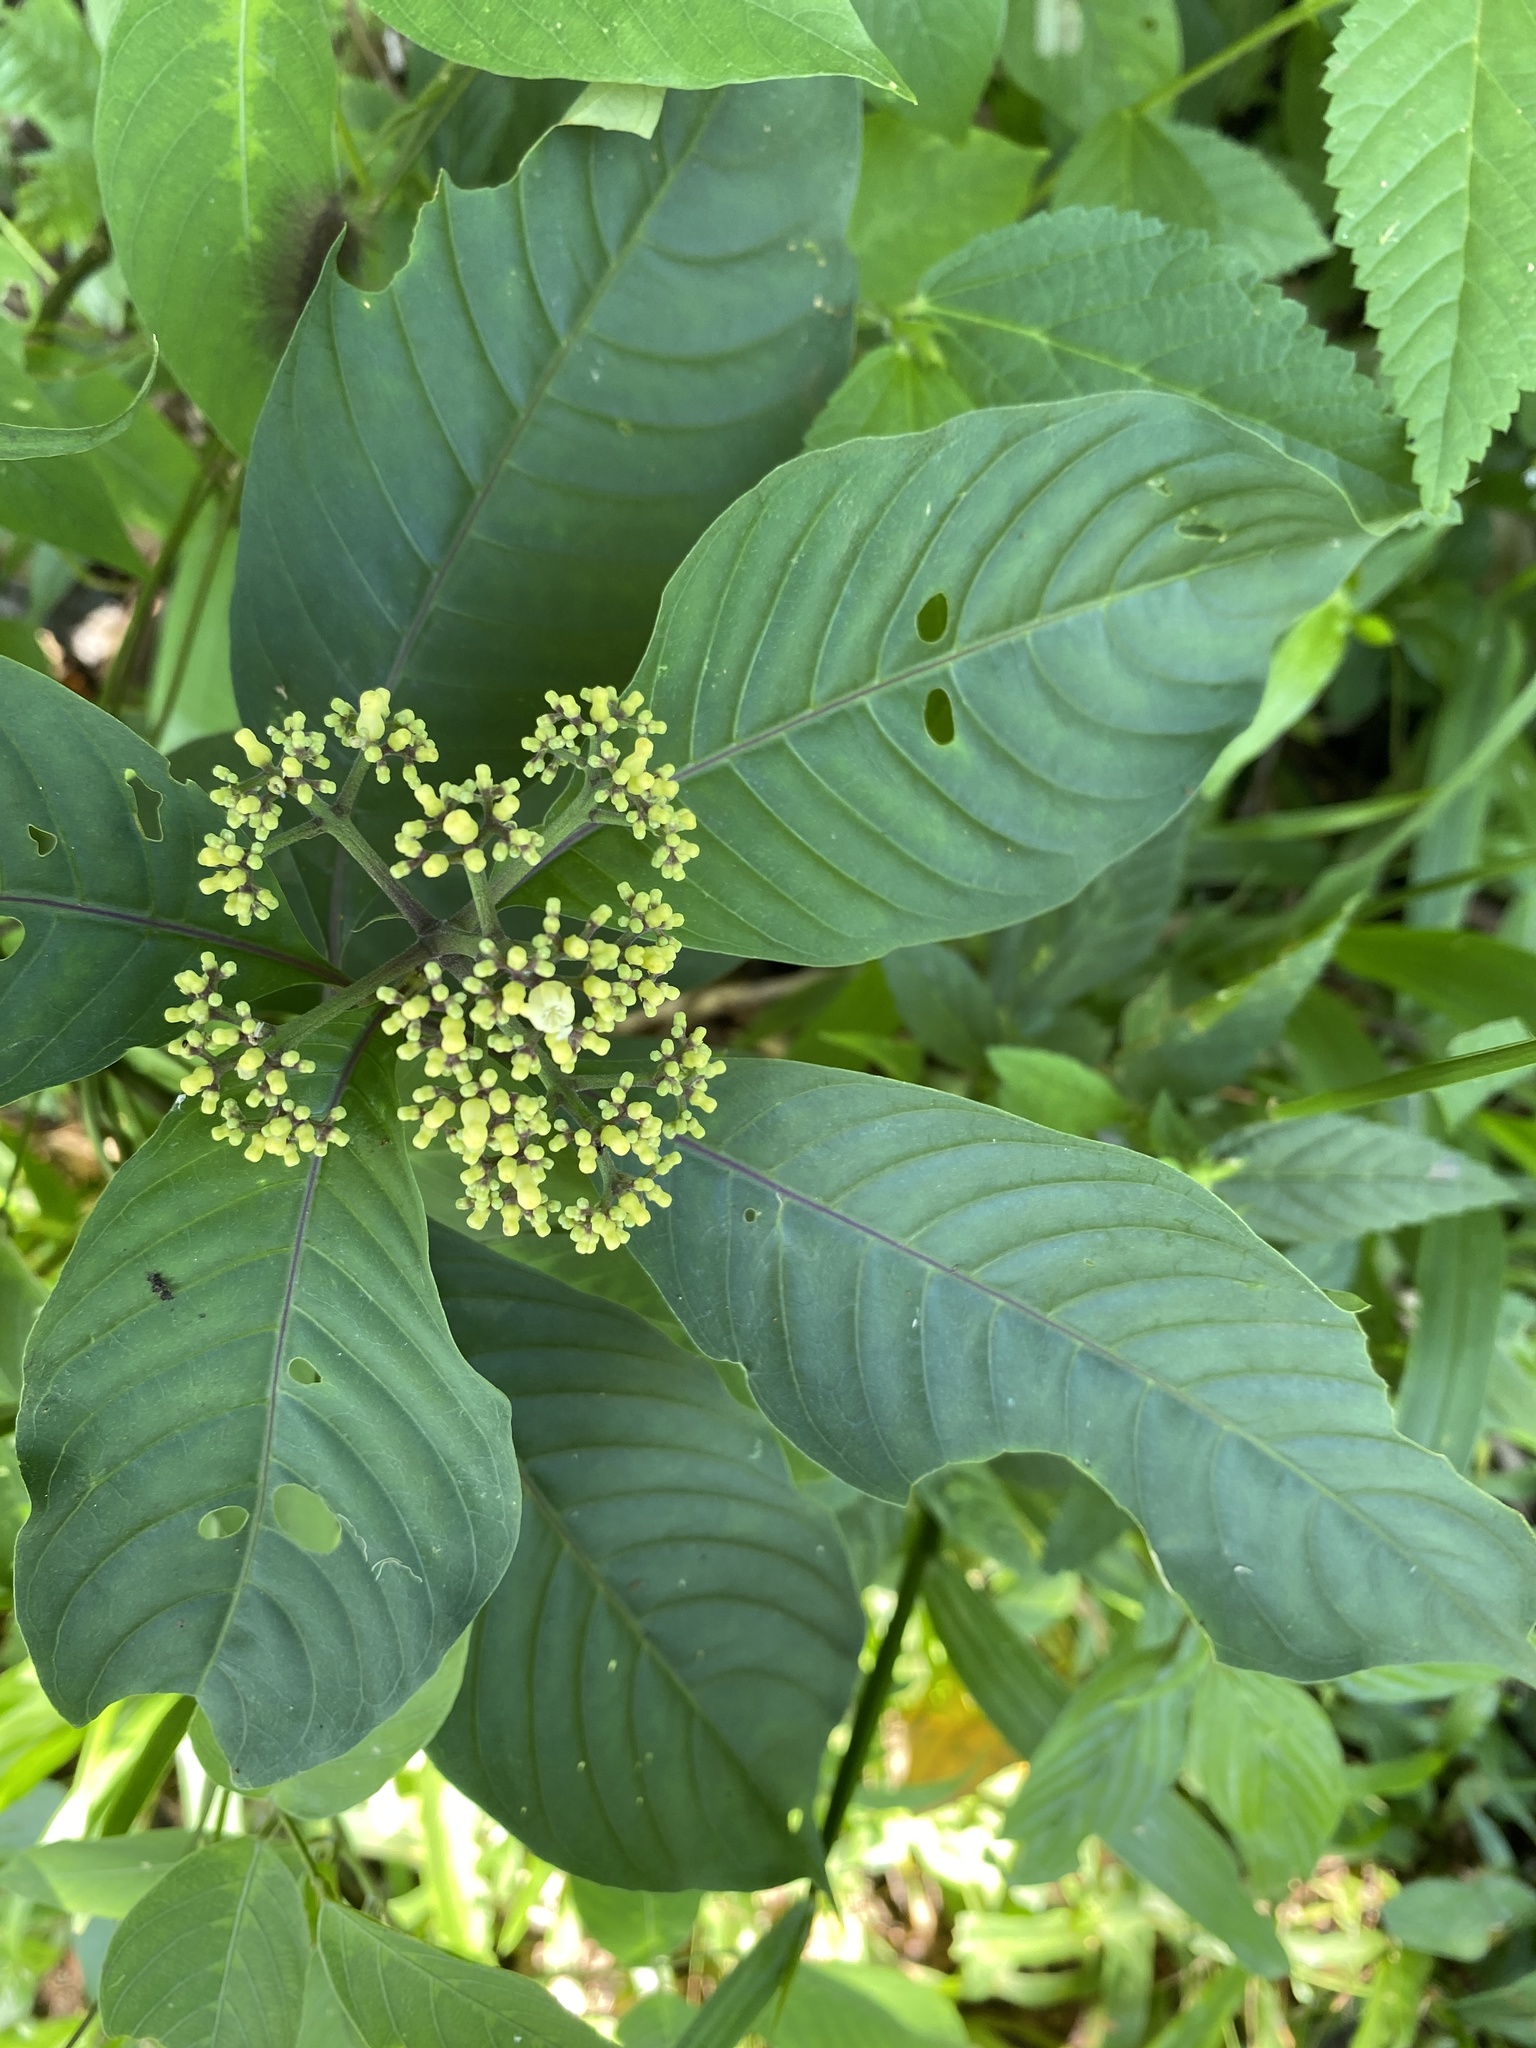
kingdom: Plantae
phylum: Tracheophyta
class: Magnoliopsida
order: Gentianales
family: Rubiaceae
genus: Palicourea
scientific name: Palicourea pubescens
